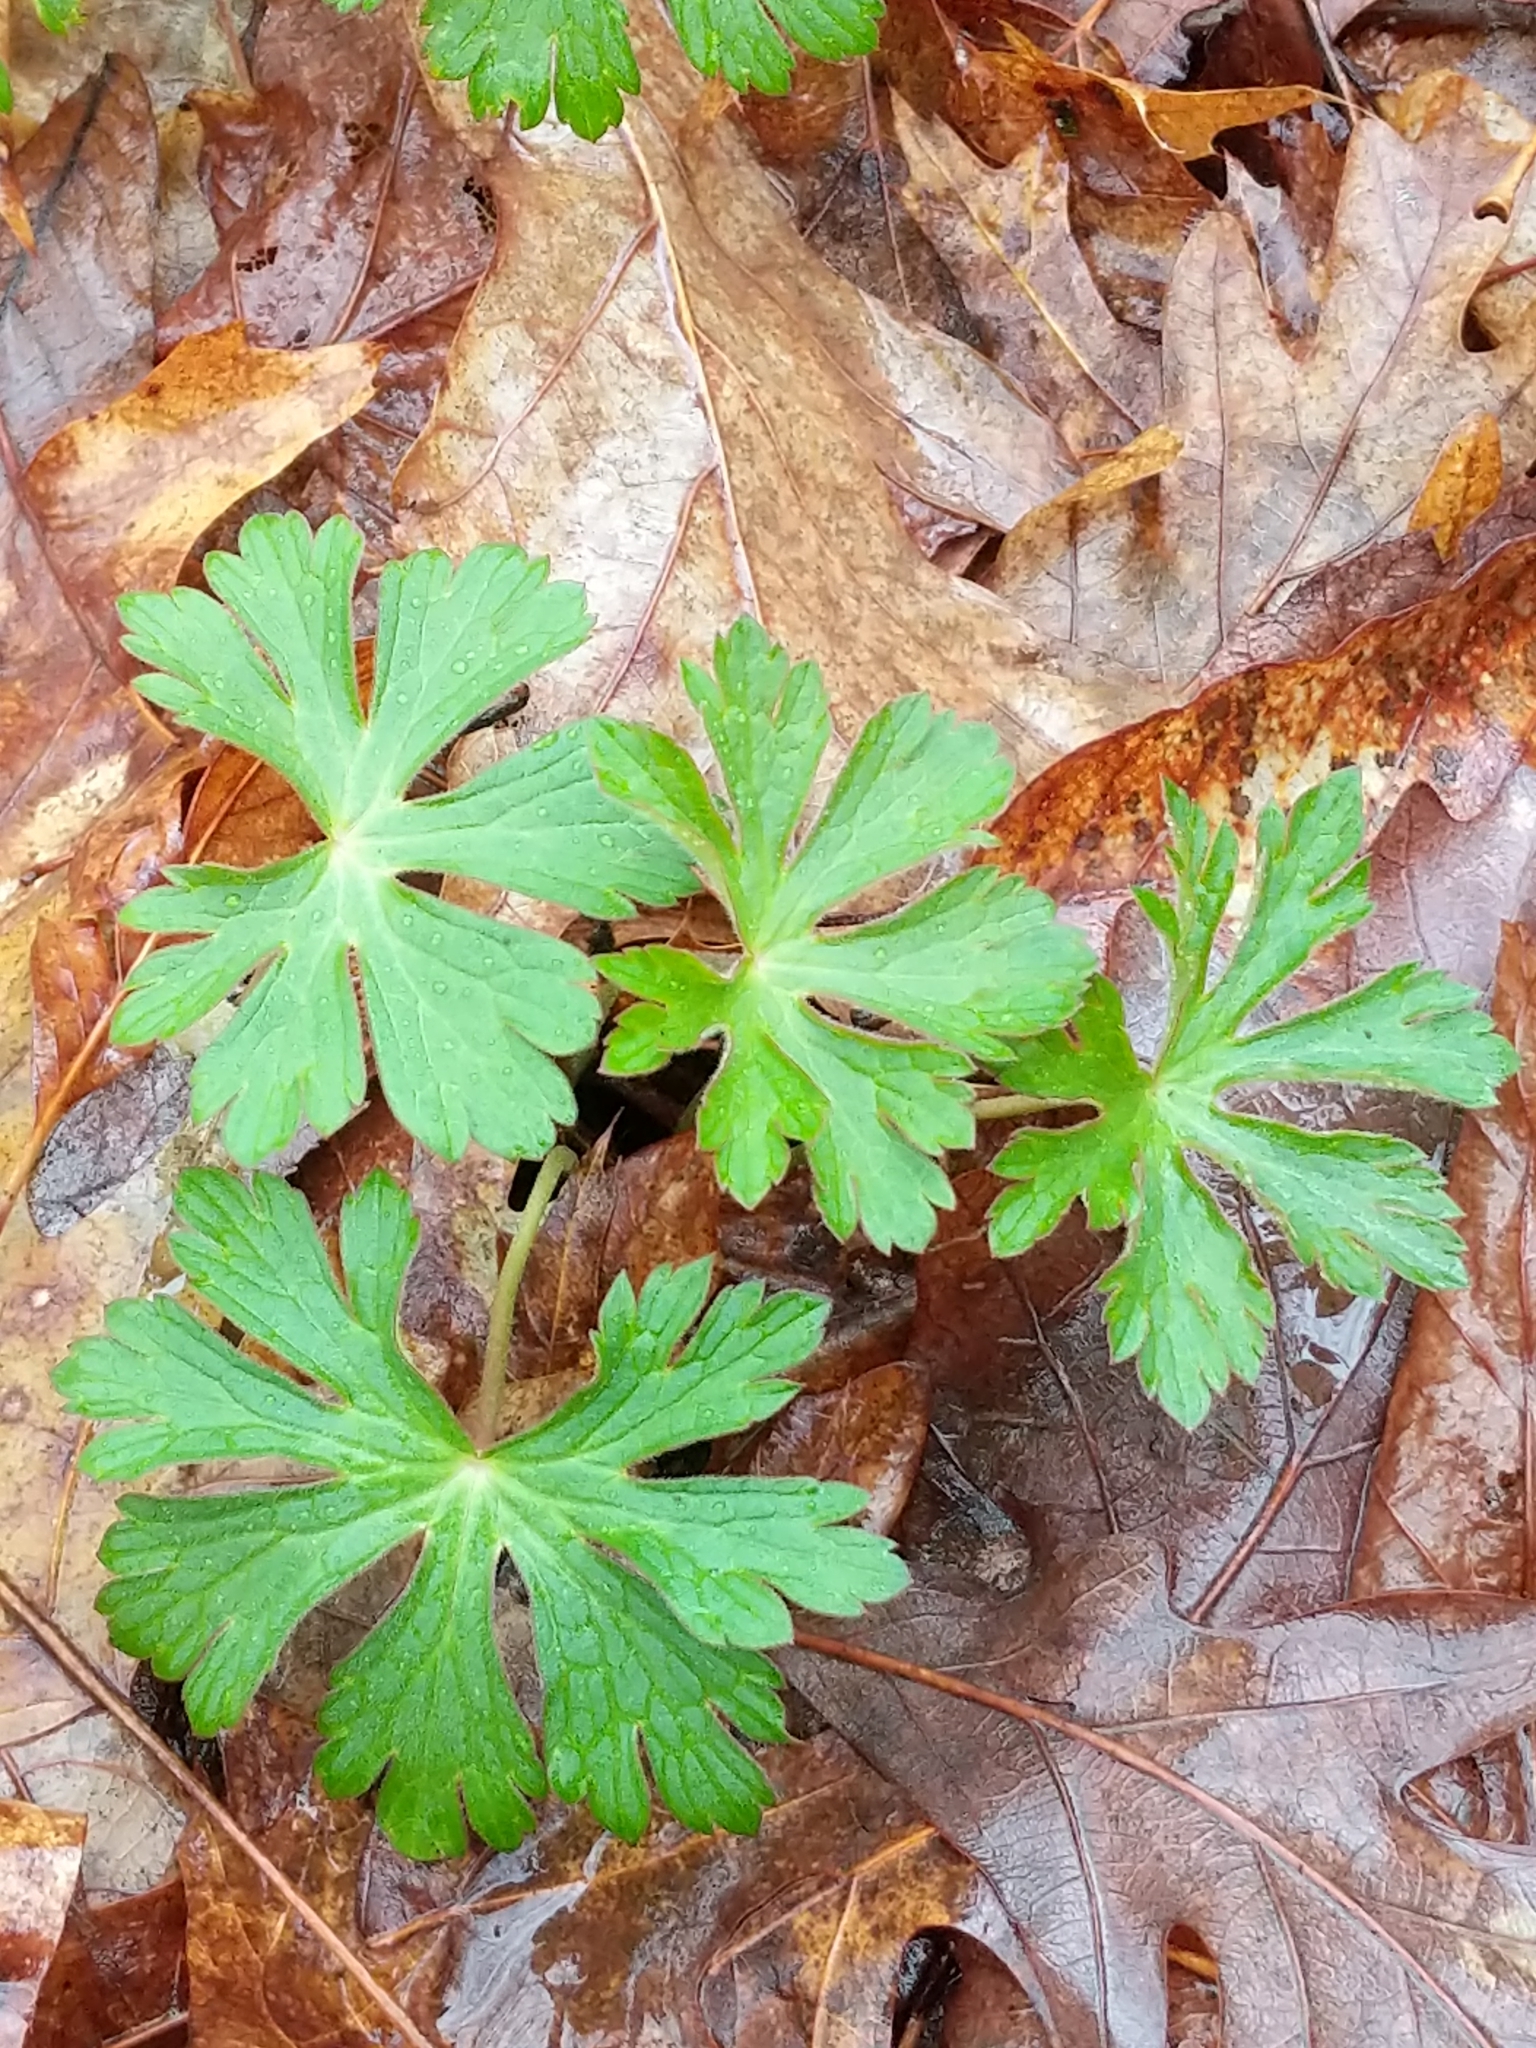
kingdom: Plantae
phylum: Tracheophyta
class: Magnoliopsida
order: Geraniales
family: Geraniaceae
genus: Geranium
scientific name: Geranium maculatum
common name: Spotted geranium
